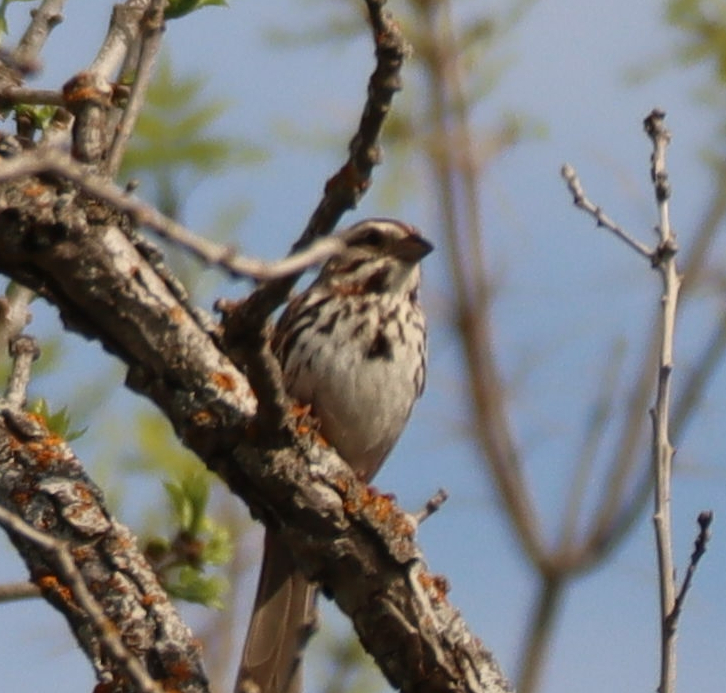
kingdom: Animalia
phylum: Chordata
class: Aves
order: Passeriformes
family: Passerellidae
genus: Melospiza
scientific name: Melospiza melodia
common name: Song sparrow
